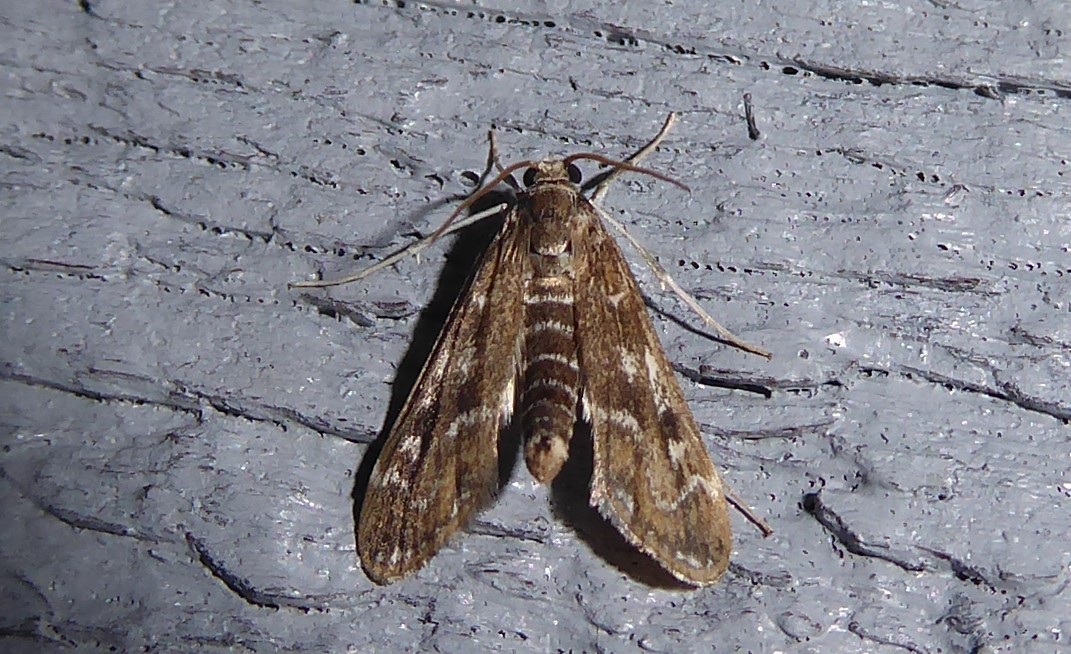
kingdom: Animalia
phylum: Arthropoda
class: Insecta
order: Lepidoptera
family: Crambidae
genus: Hygraula
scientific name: Hygraula nitens
